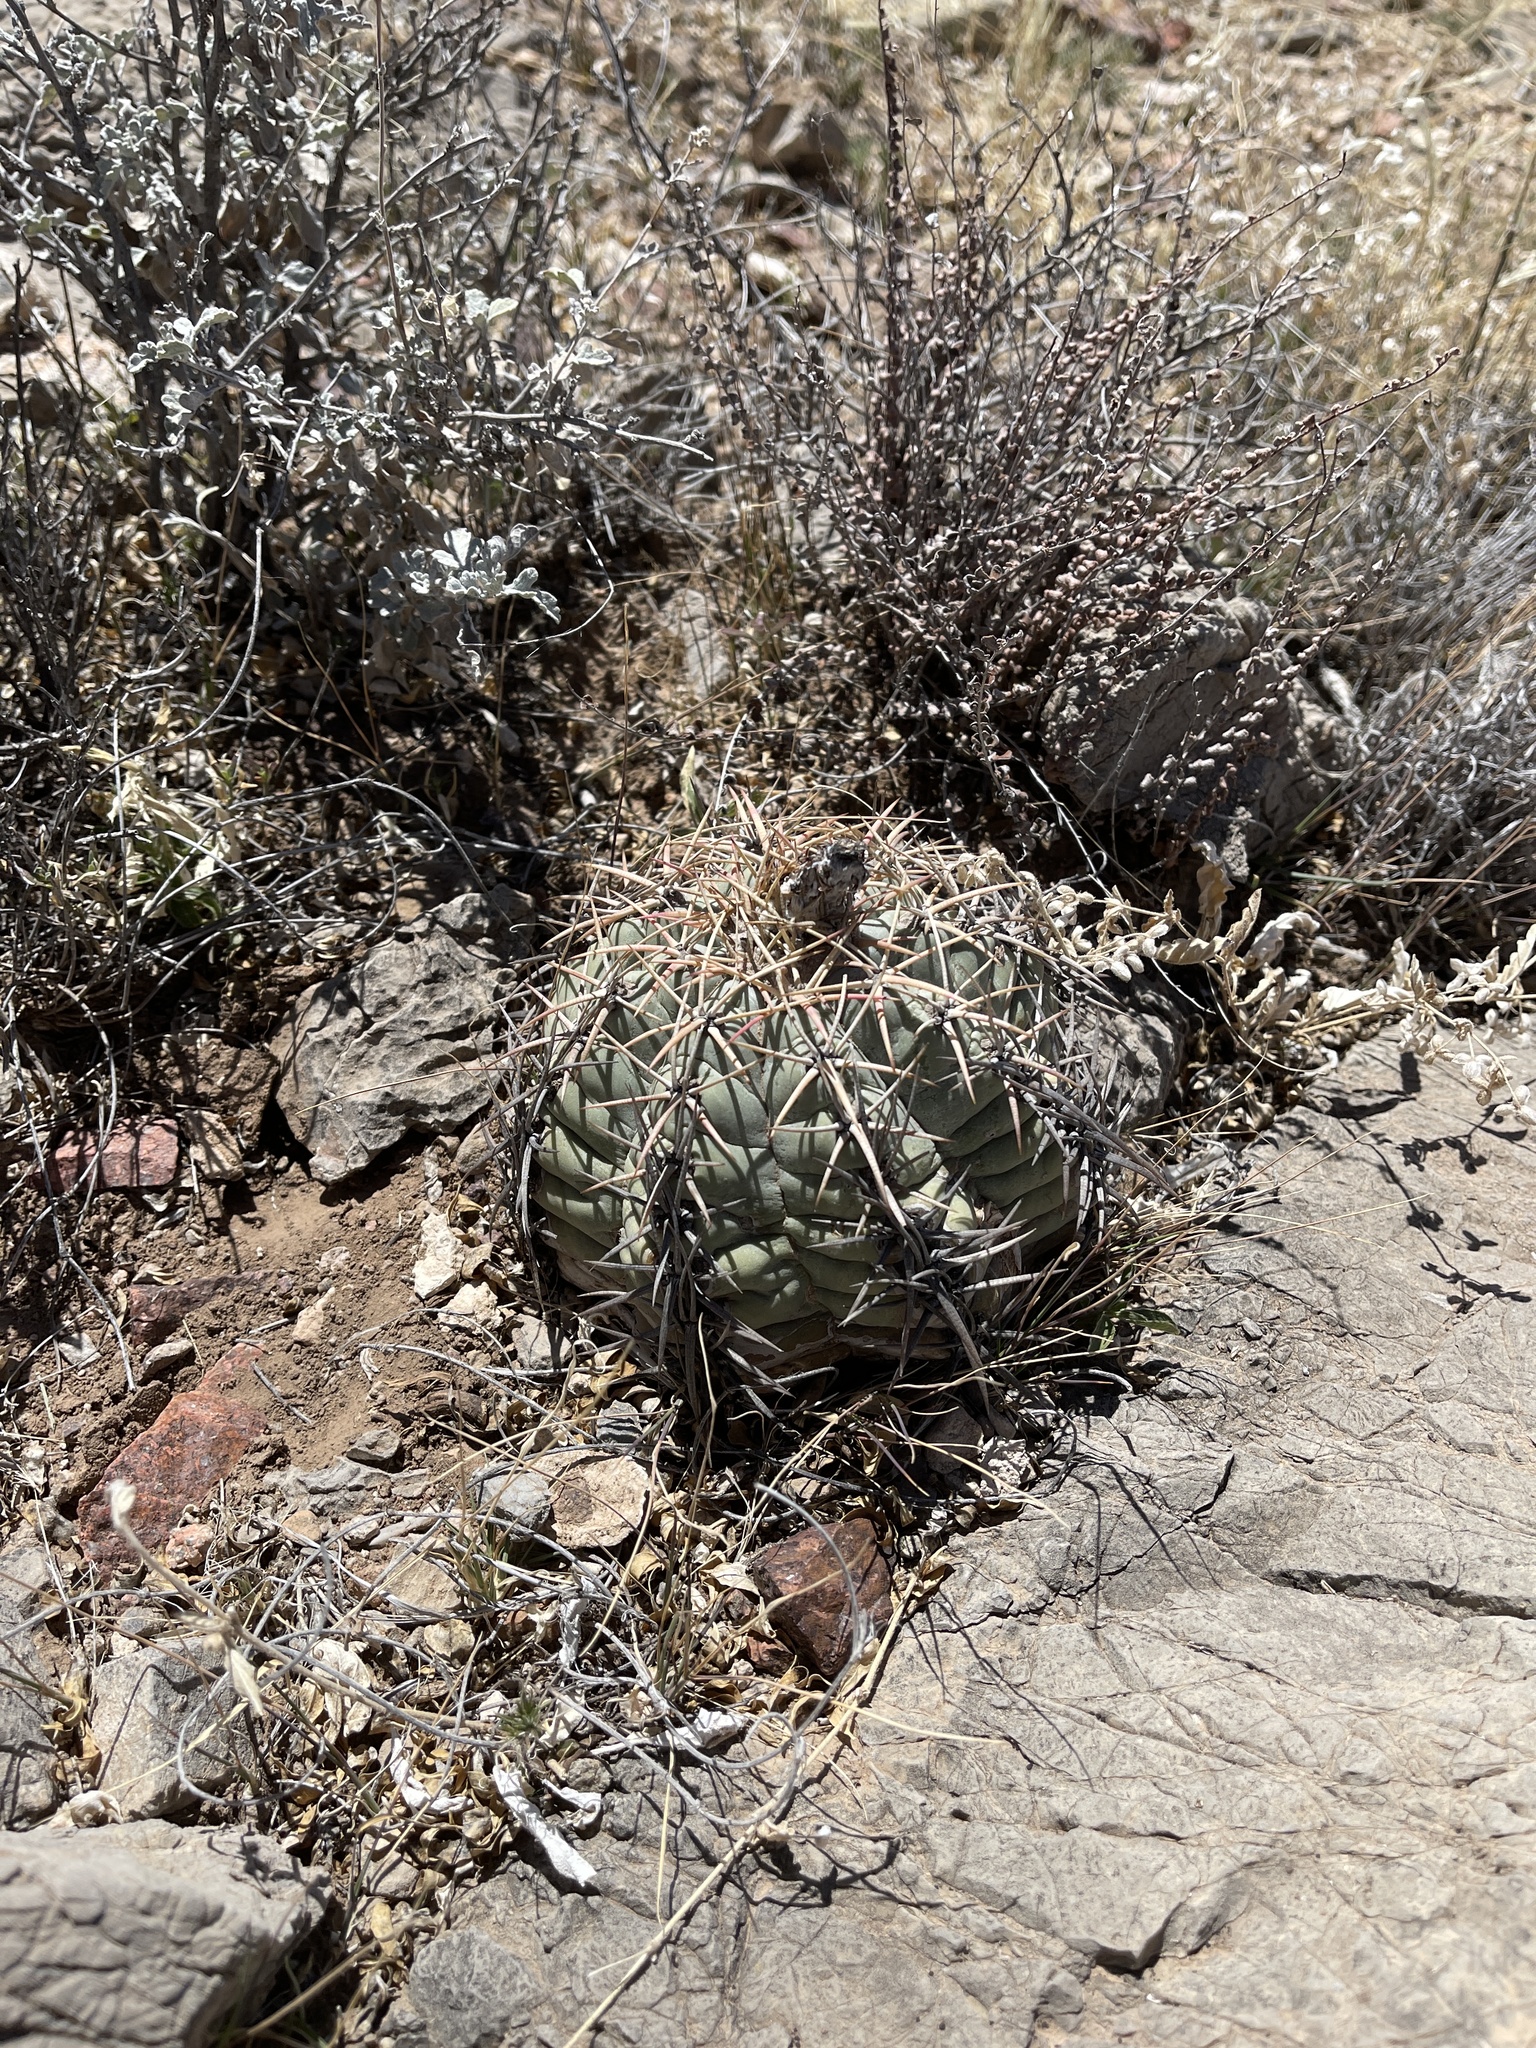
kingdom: Plantae
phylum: Tracheophyta
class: Magnoliopsida
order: Caryophyllales
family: Cactaceae
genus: Echinocactus
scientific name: Echinocactus horizonthalonius
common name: Devilshead
